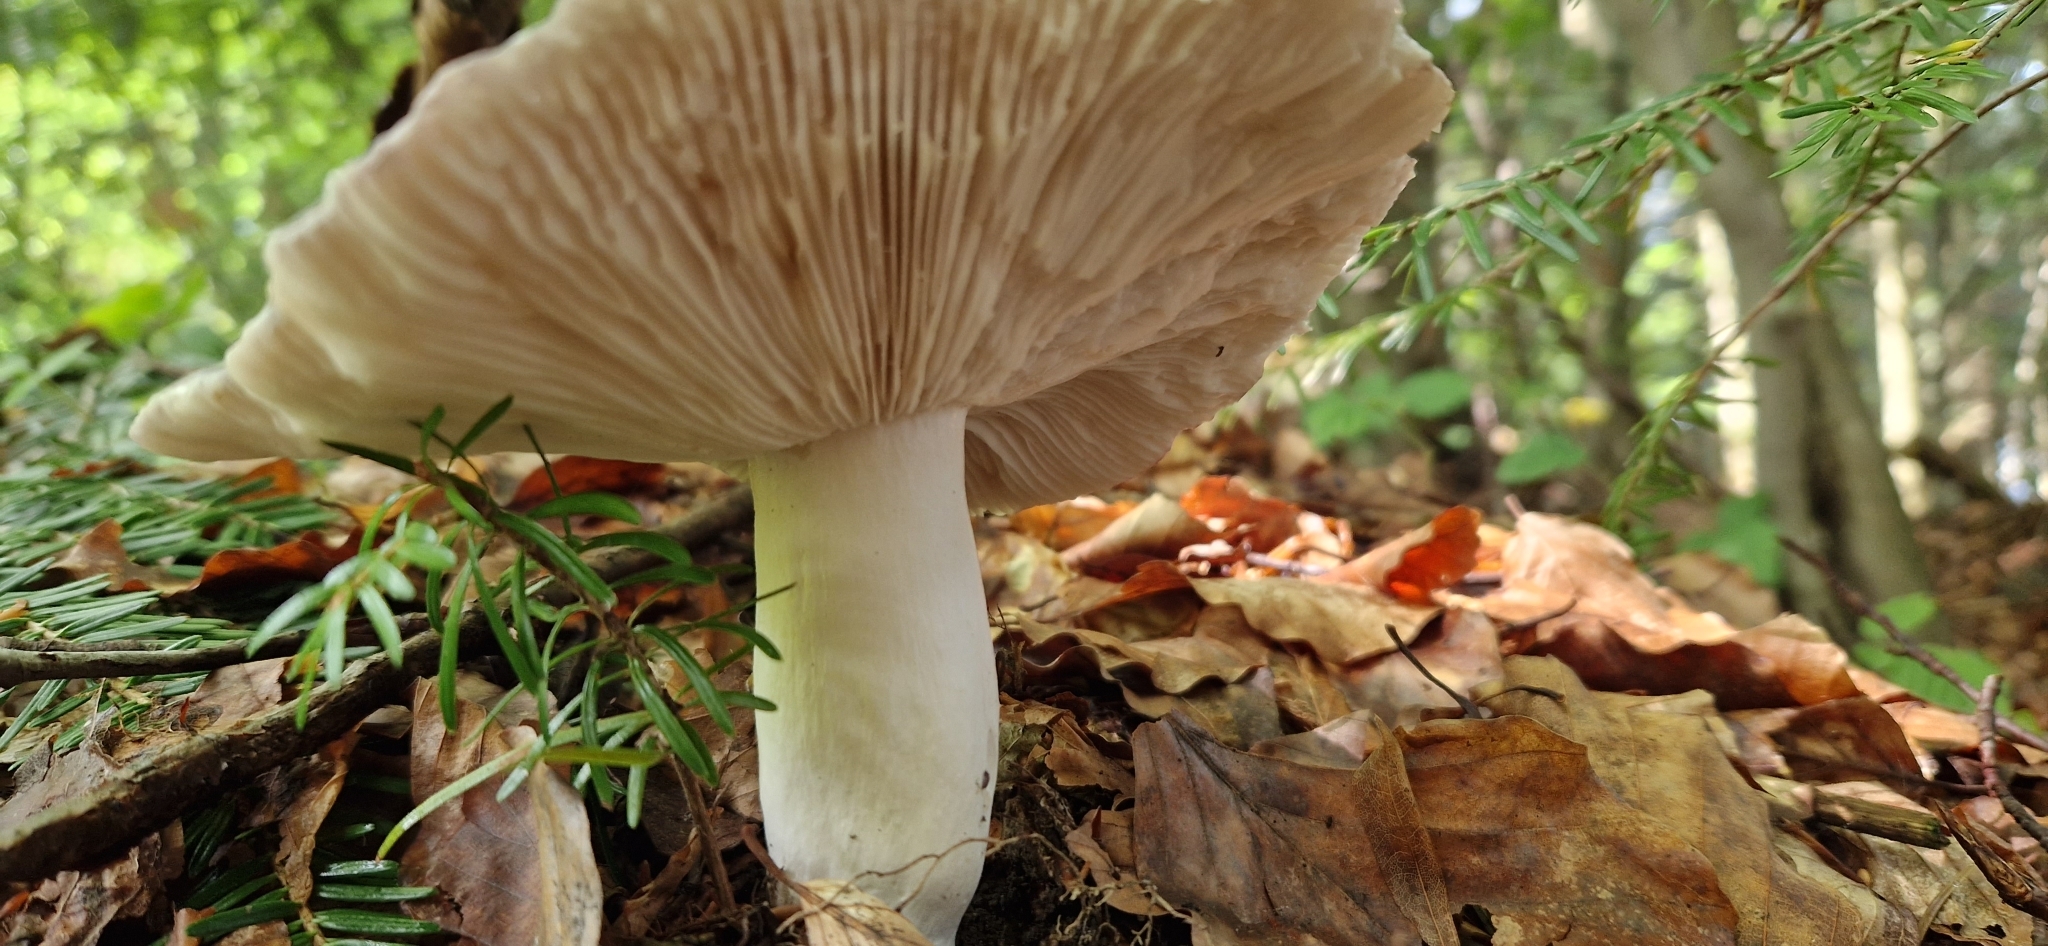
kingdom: Fungi
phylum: Basidiomycota
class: Agaricomycetes
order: Russulales
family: Russulaceae
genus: Russula
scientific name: Russula
